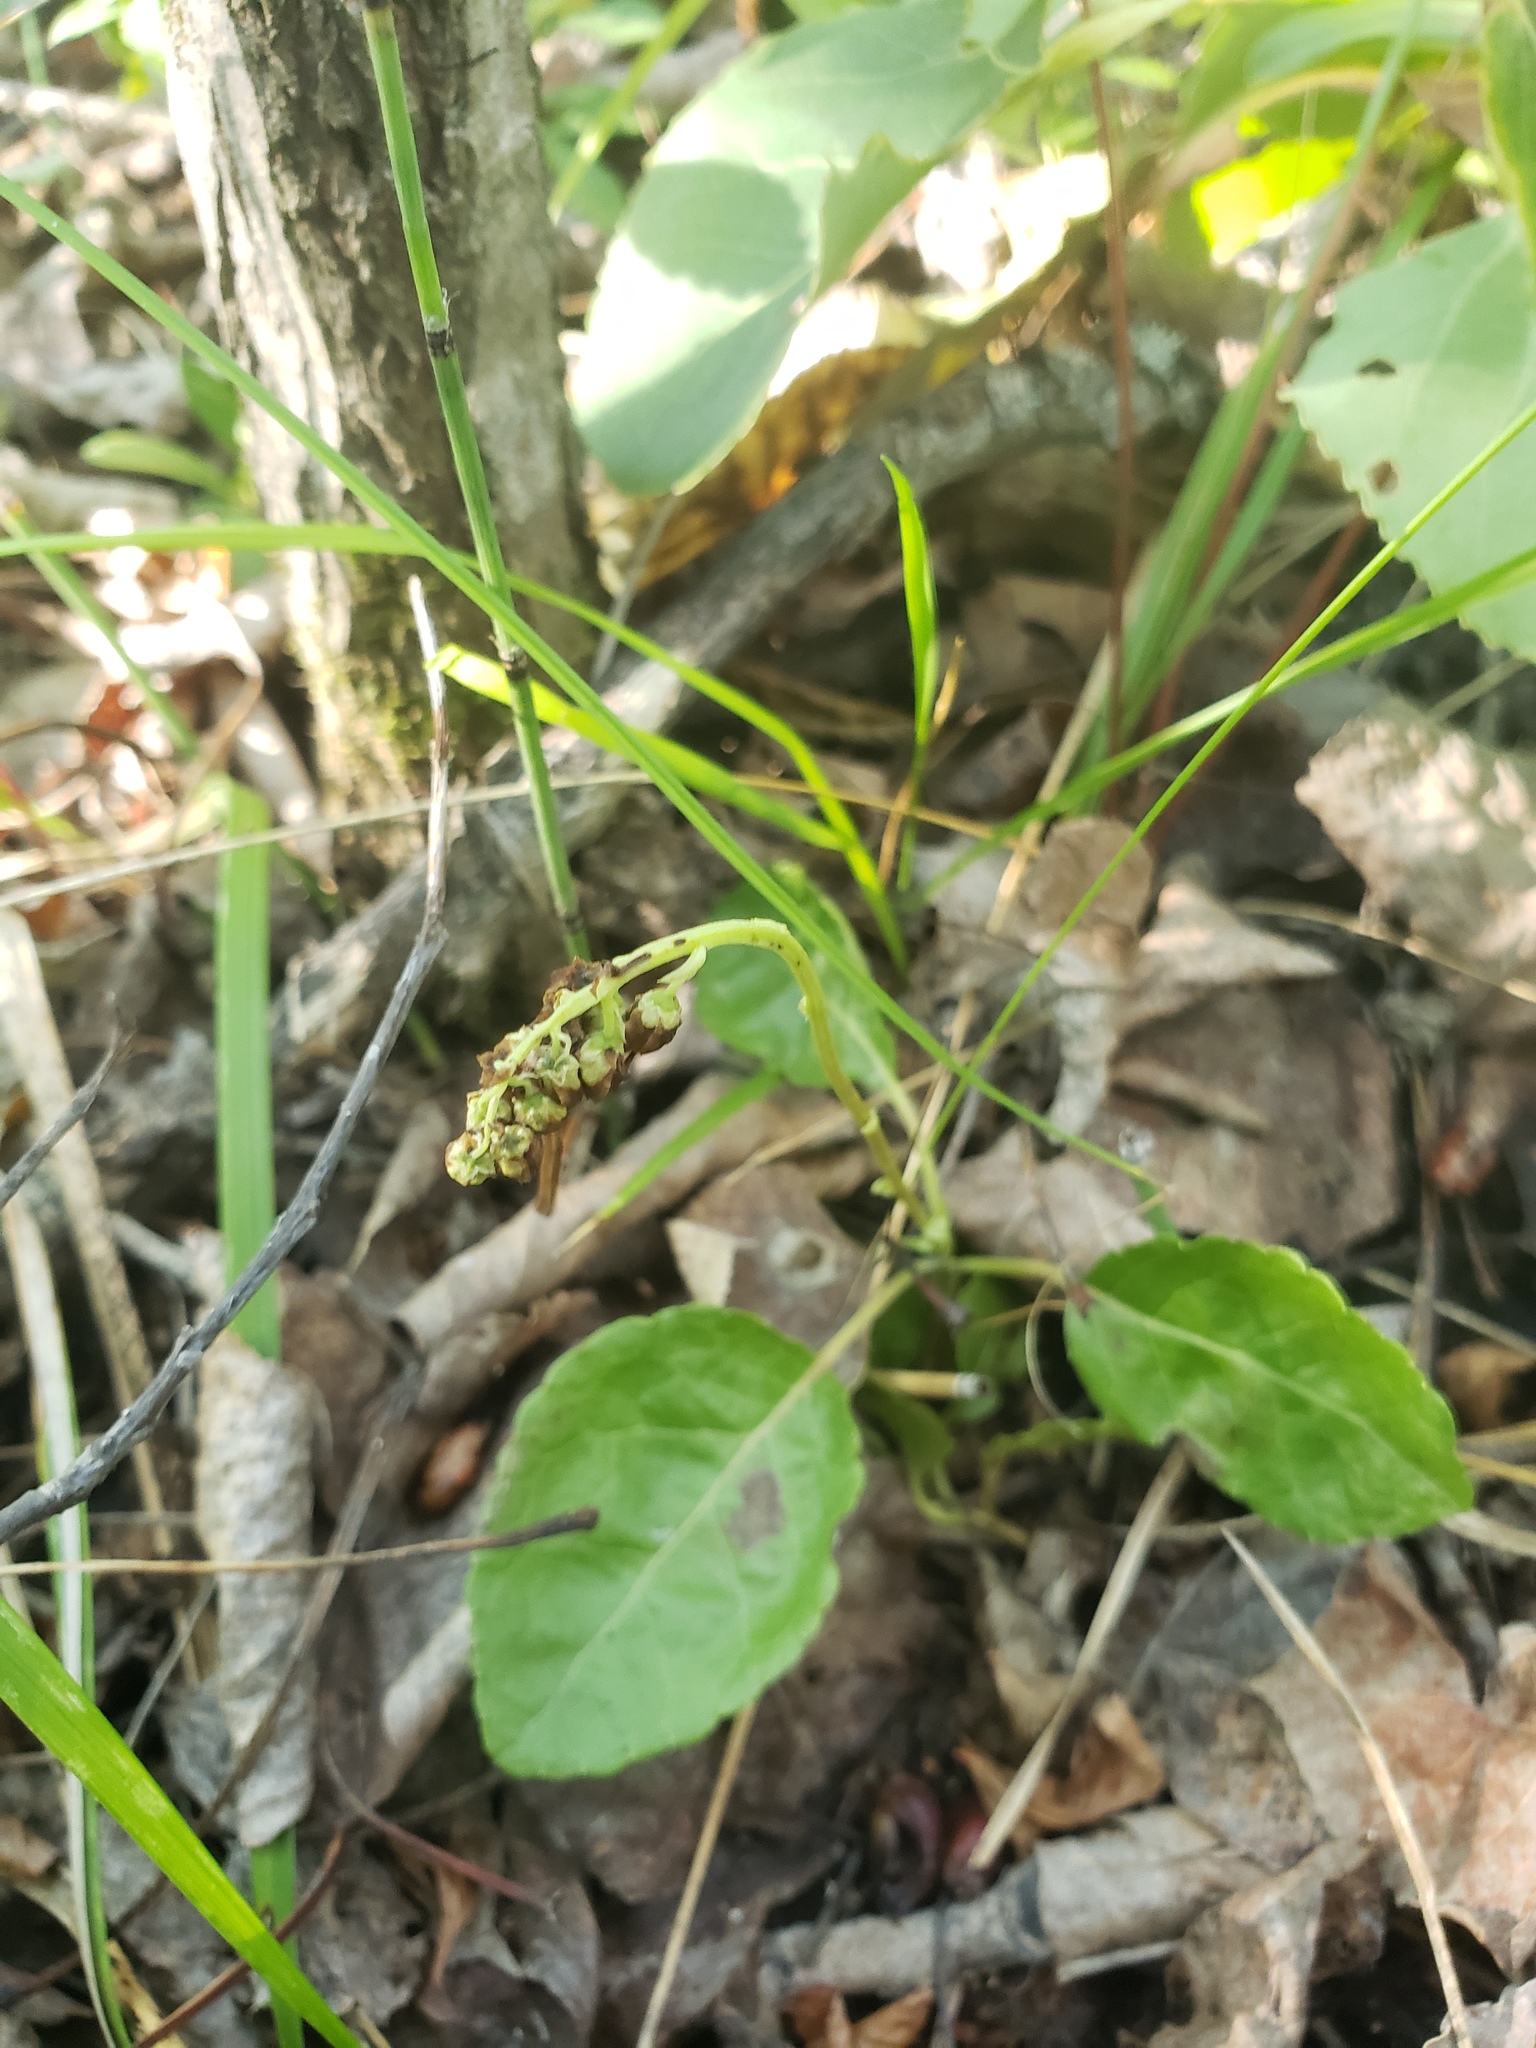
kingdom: Plantae
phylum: Tracheophyta
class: Magnoliopsida
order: Ericales
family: Ericaceae
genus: Orthilia
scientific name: Orthilia secunda
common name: One-sided orthilia
